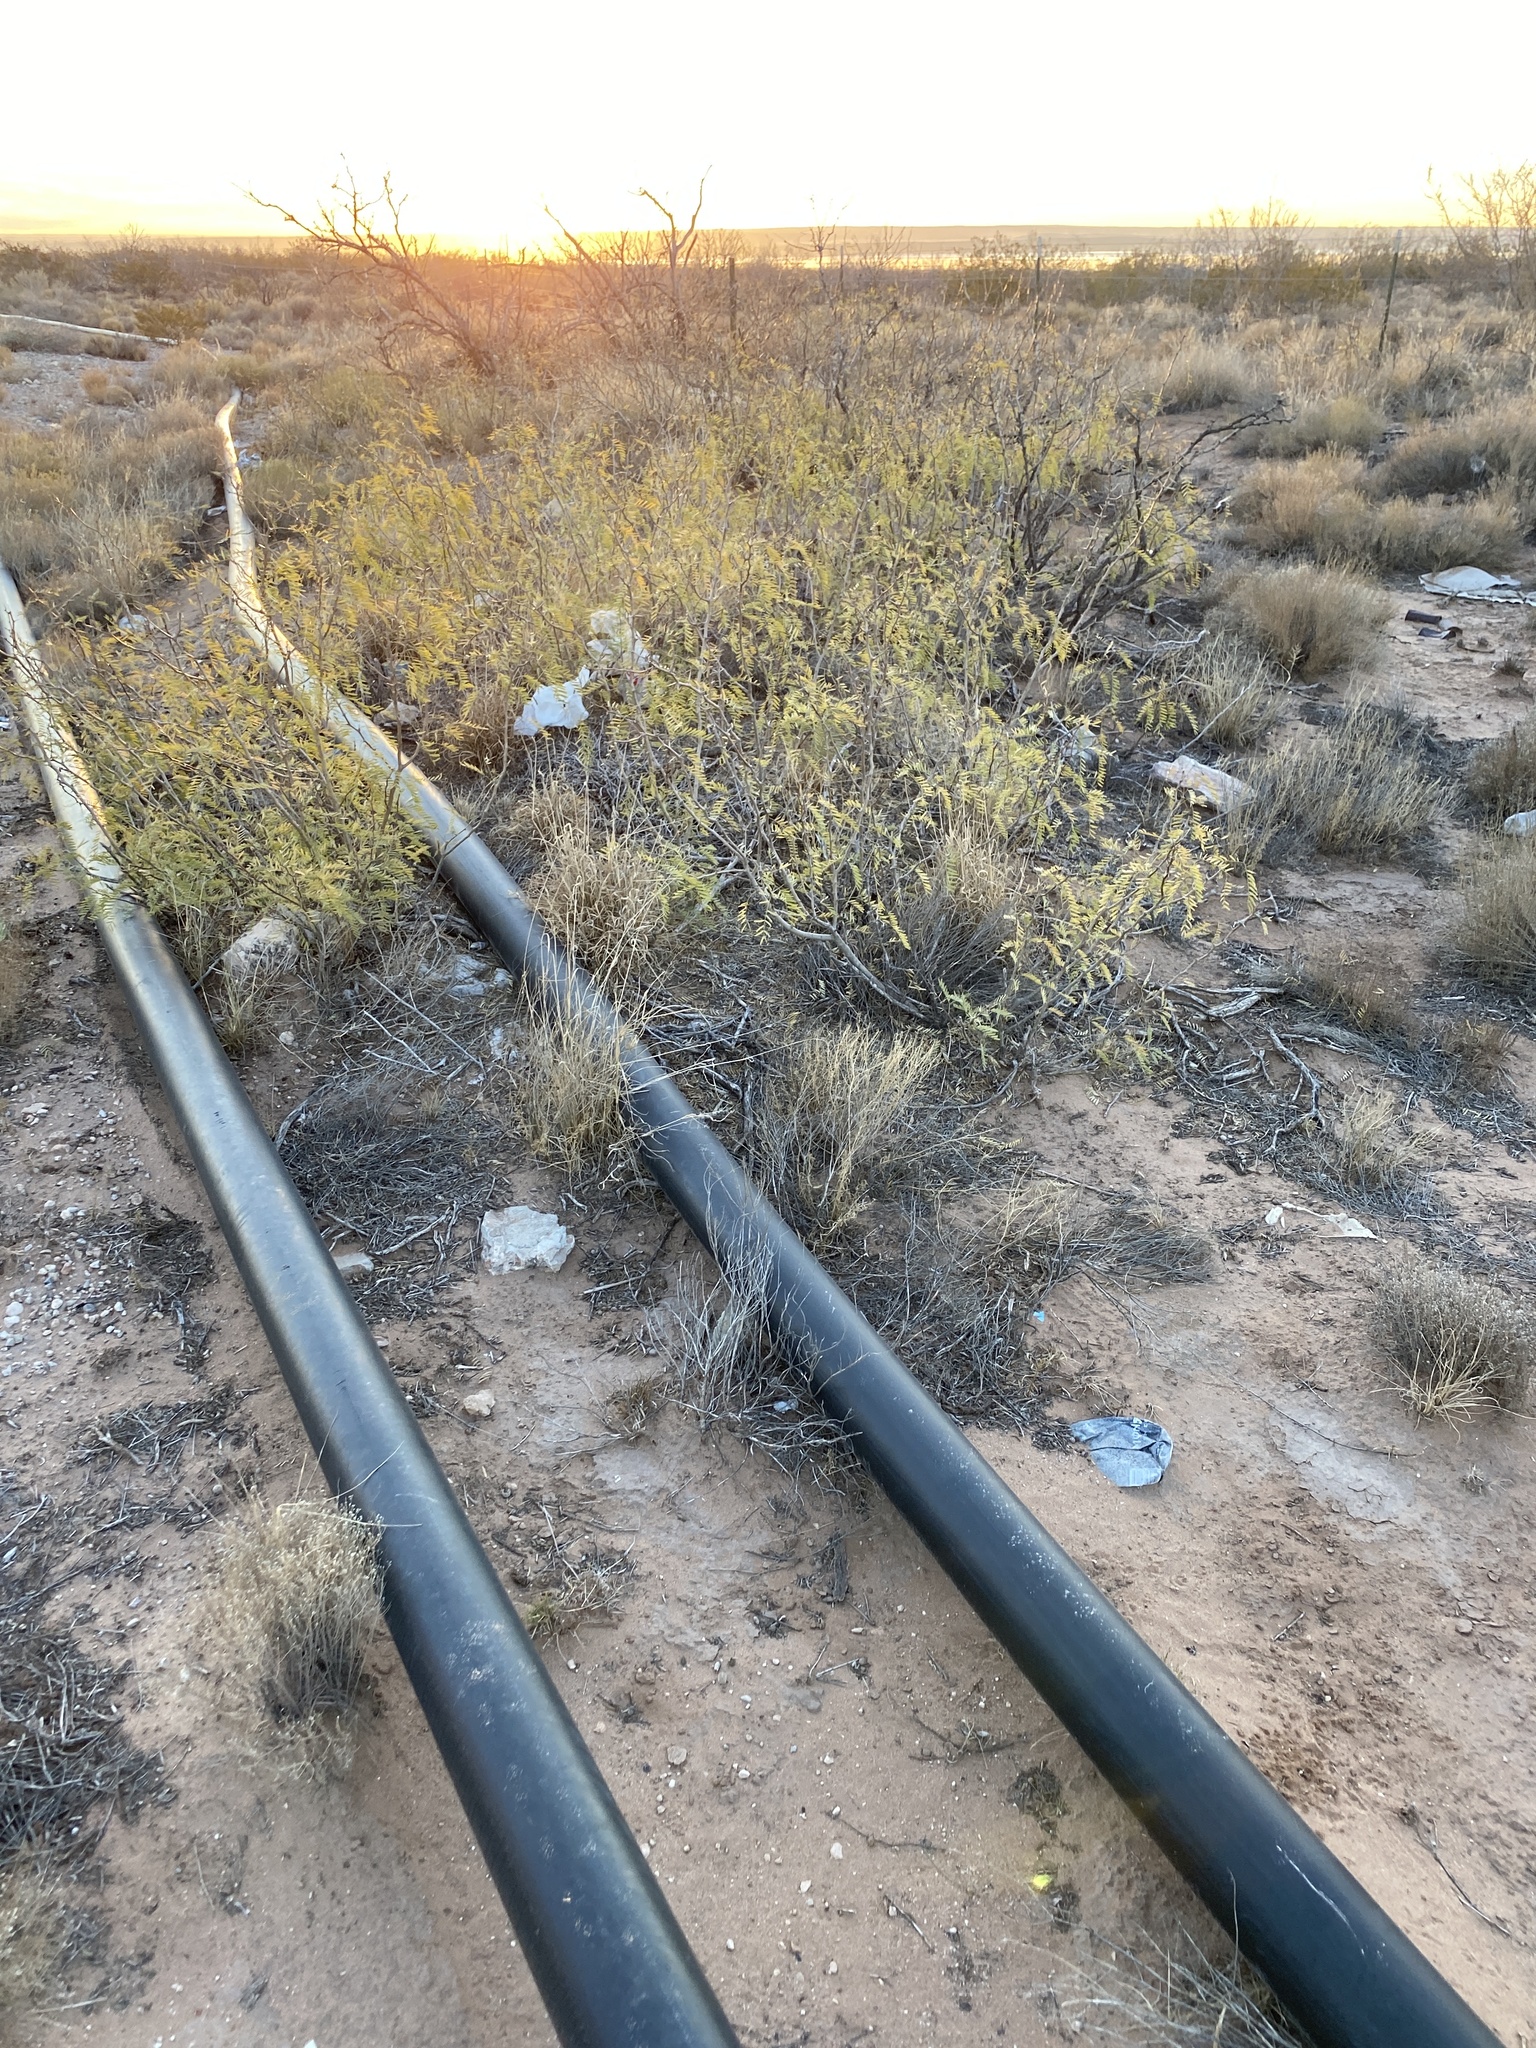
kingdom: Plantae
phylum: Tracheophyta
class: Magnoliopsida
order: Fabales
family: Fabaceae
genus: Prosopis
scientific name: Prosopis glandulosa
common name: Honey mesquite
